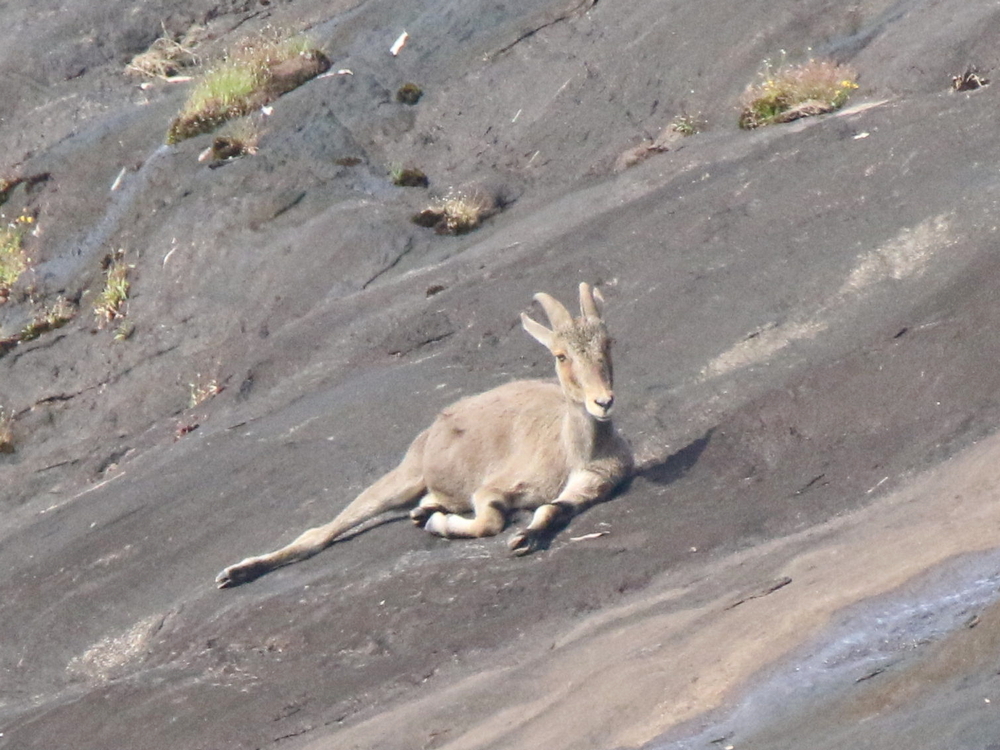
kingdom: Animalia
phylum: Chordata
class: Mammalia
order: Artiodactyla
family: Bovidae
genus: Hemitragus
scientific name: Hemitragus hylocrius
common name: Nilgiri tahr
